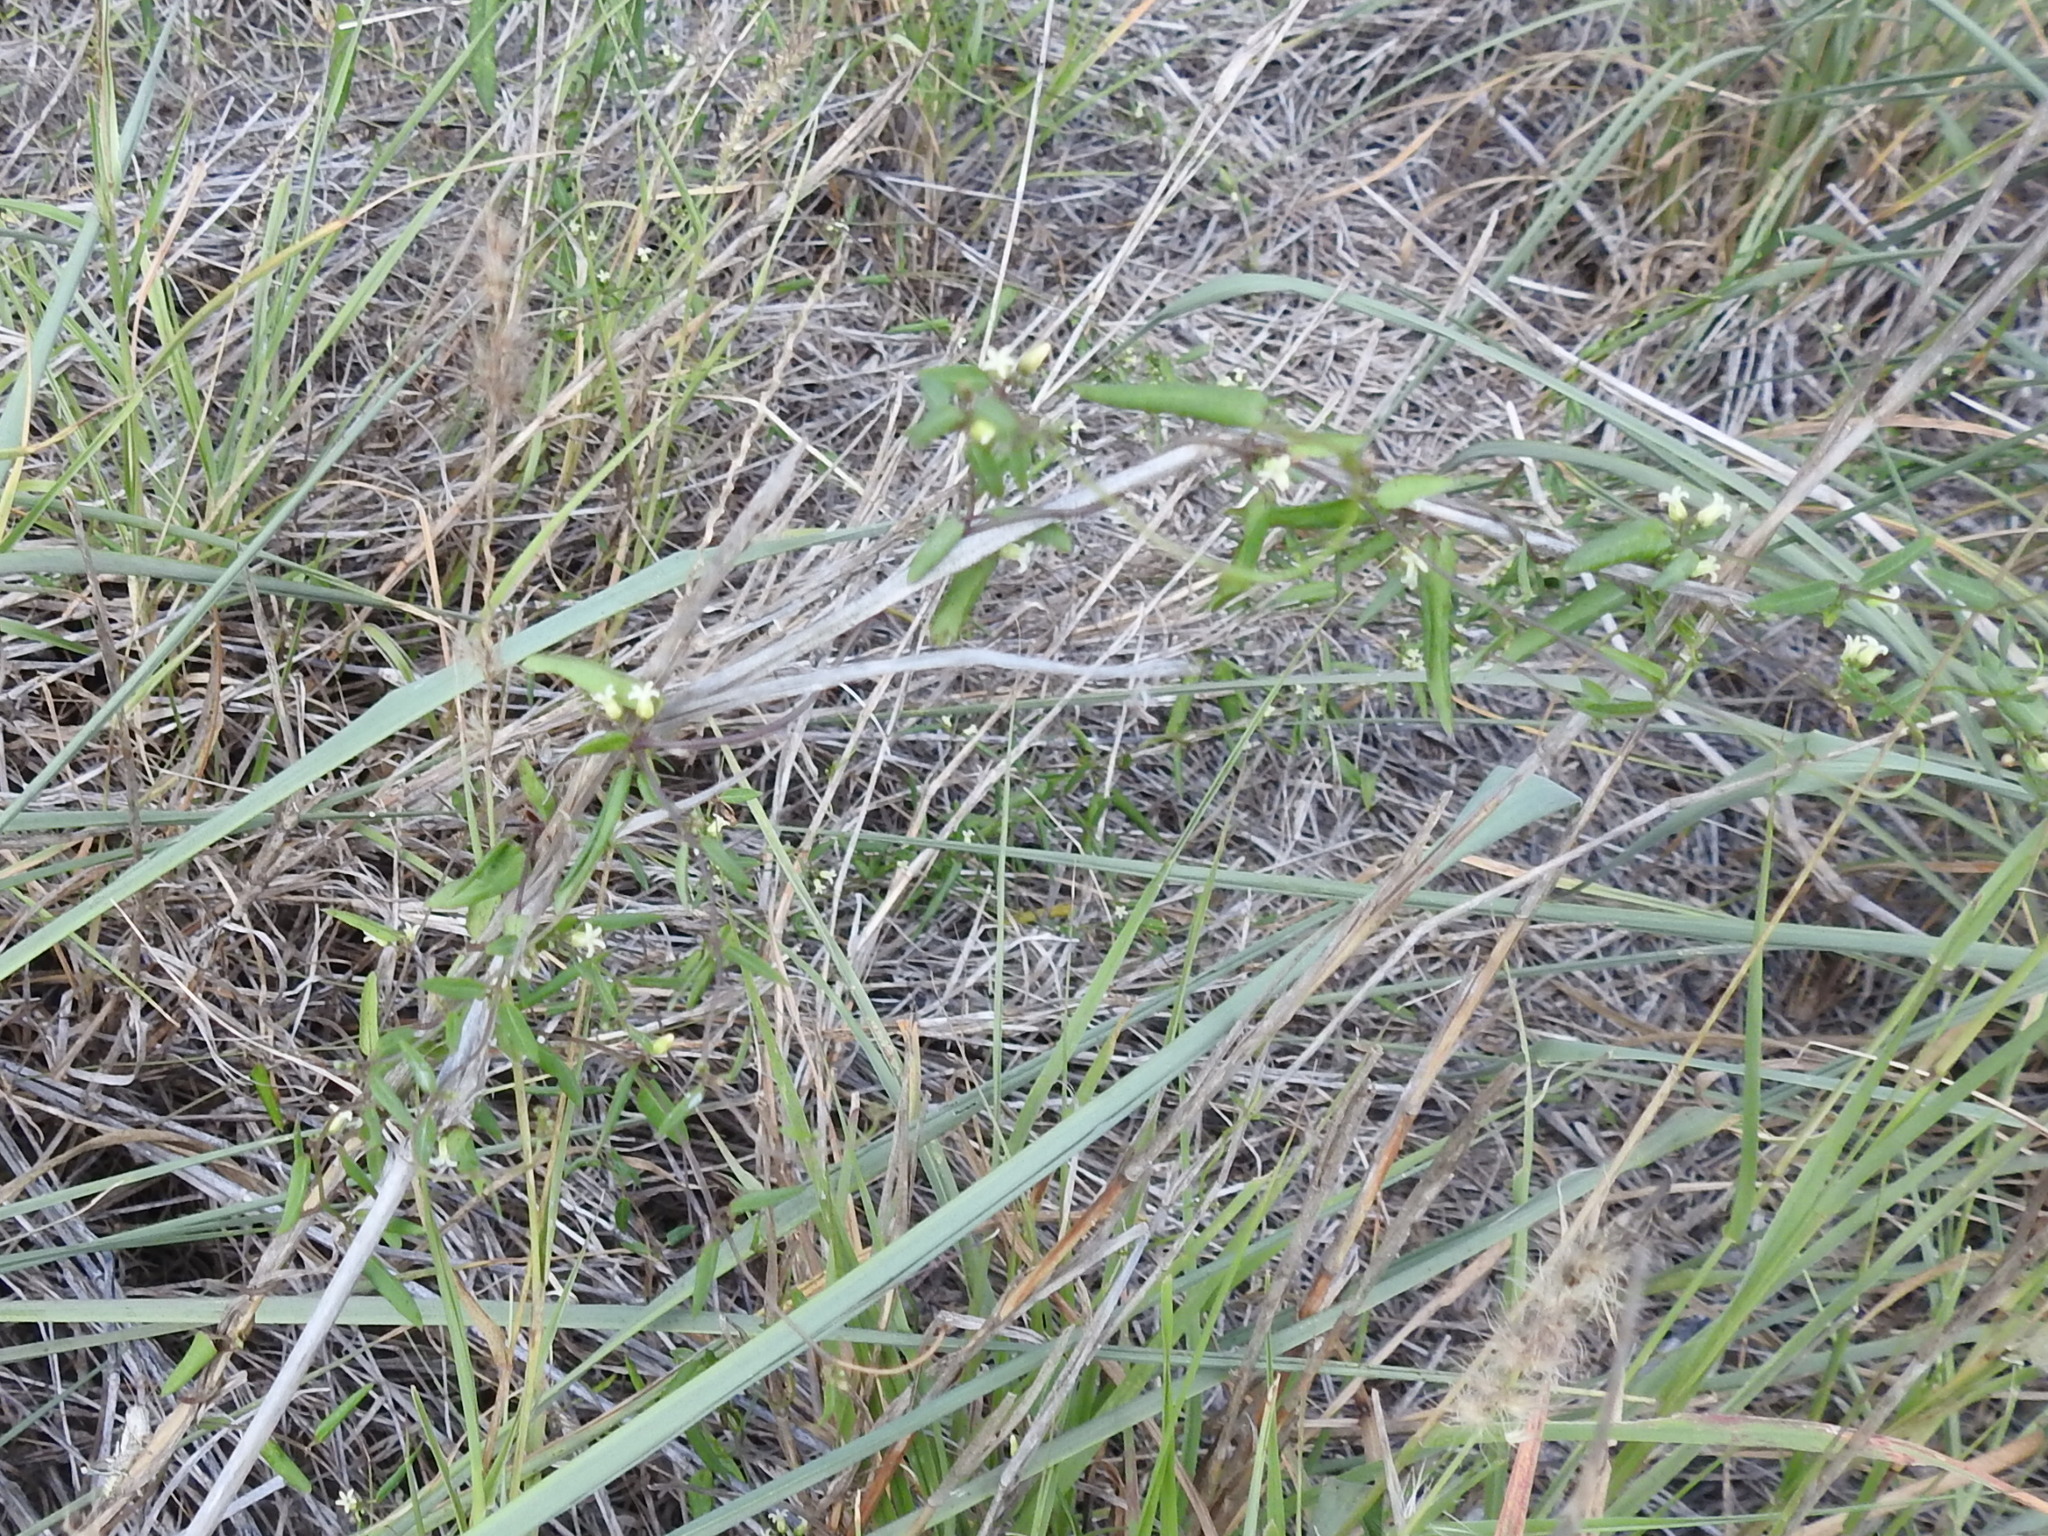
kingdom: Plantae
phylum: Tracheophyta
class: Magnoliopsida
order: Gentianales
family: Apocynaceae
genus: Metastelma
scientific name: Metastelma barbigerum
